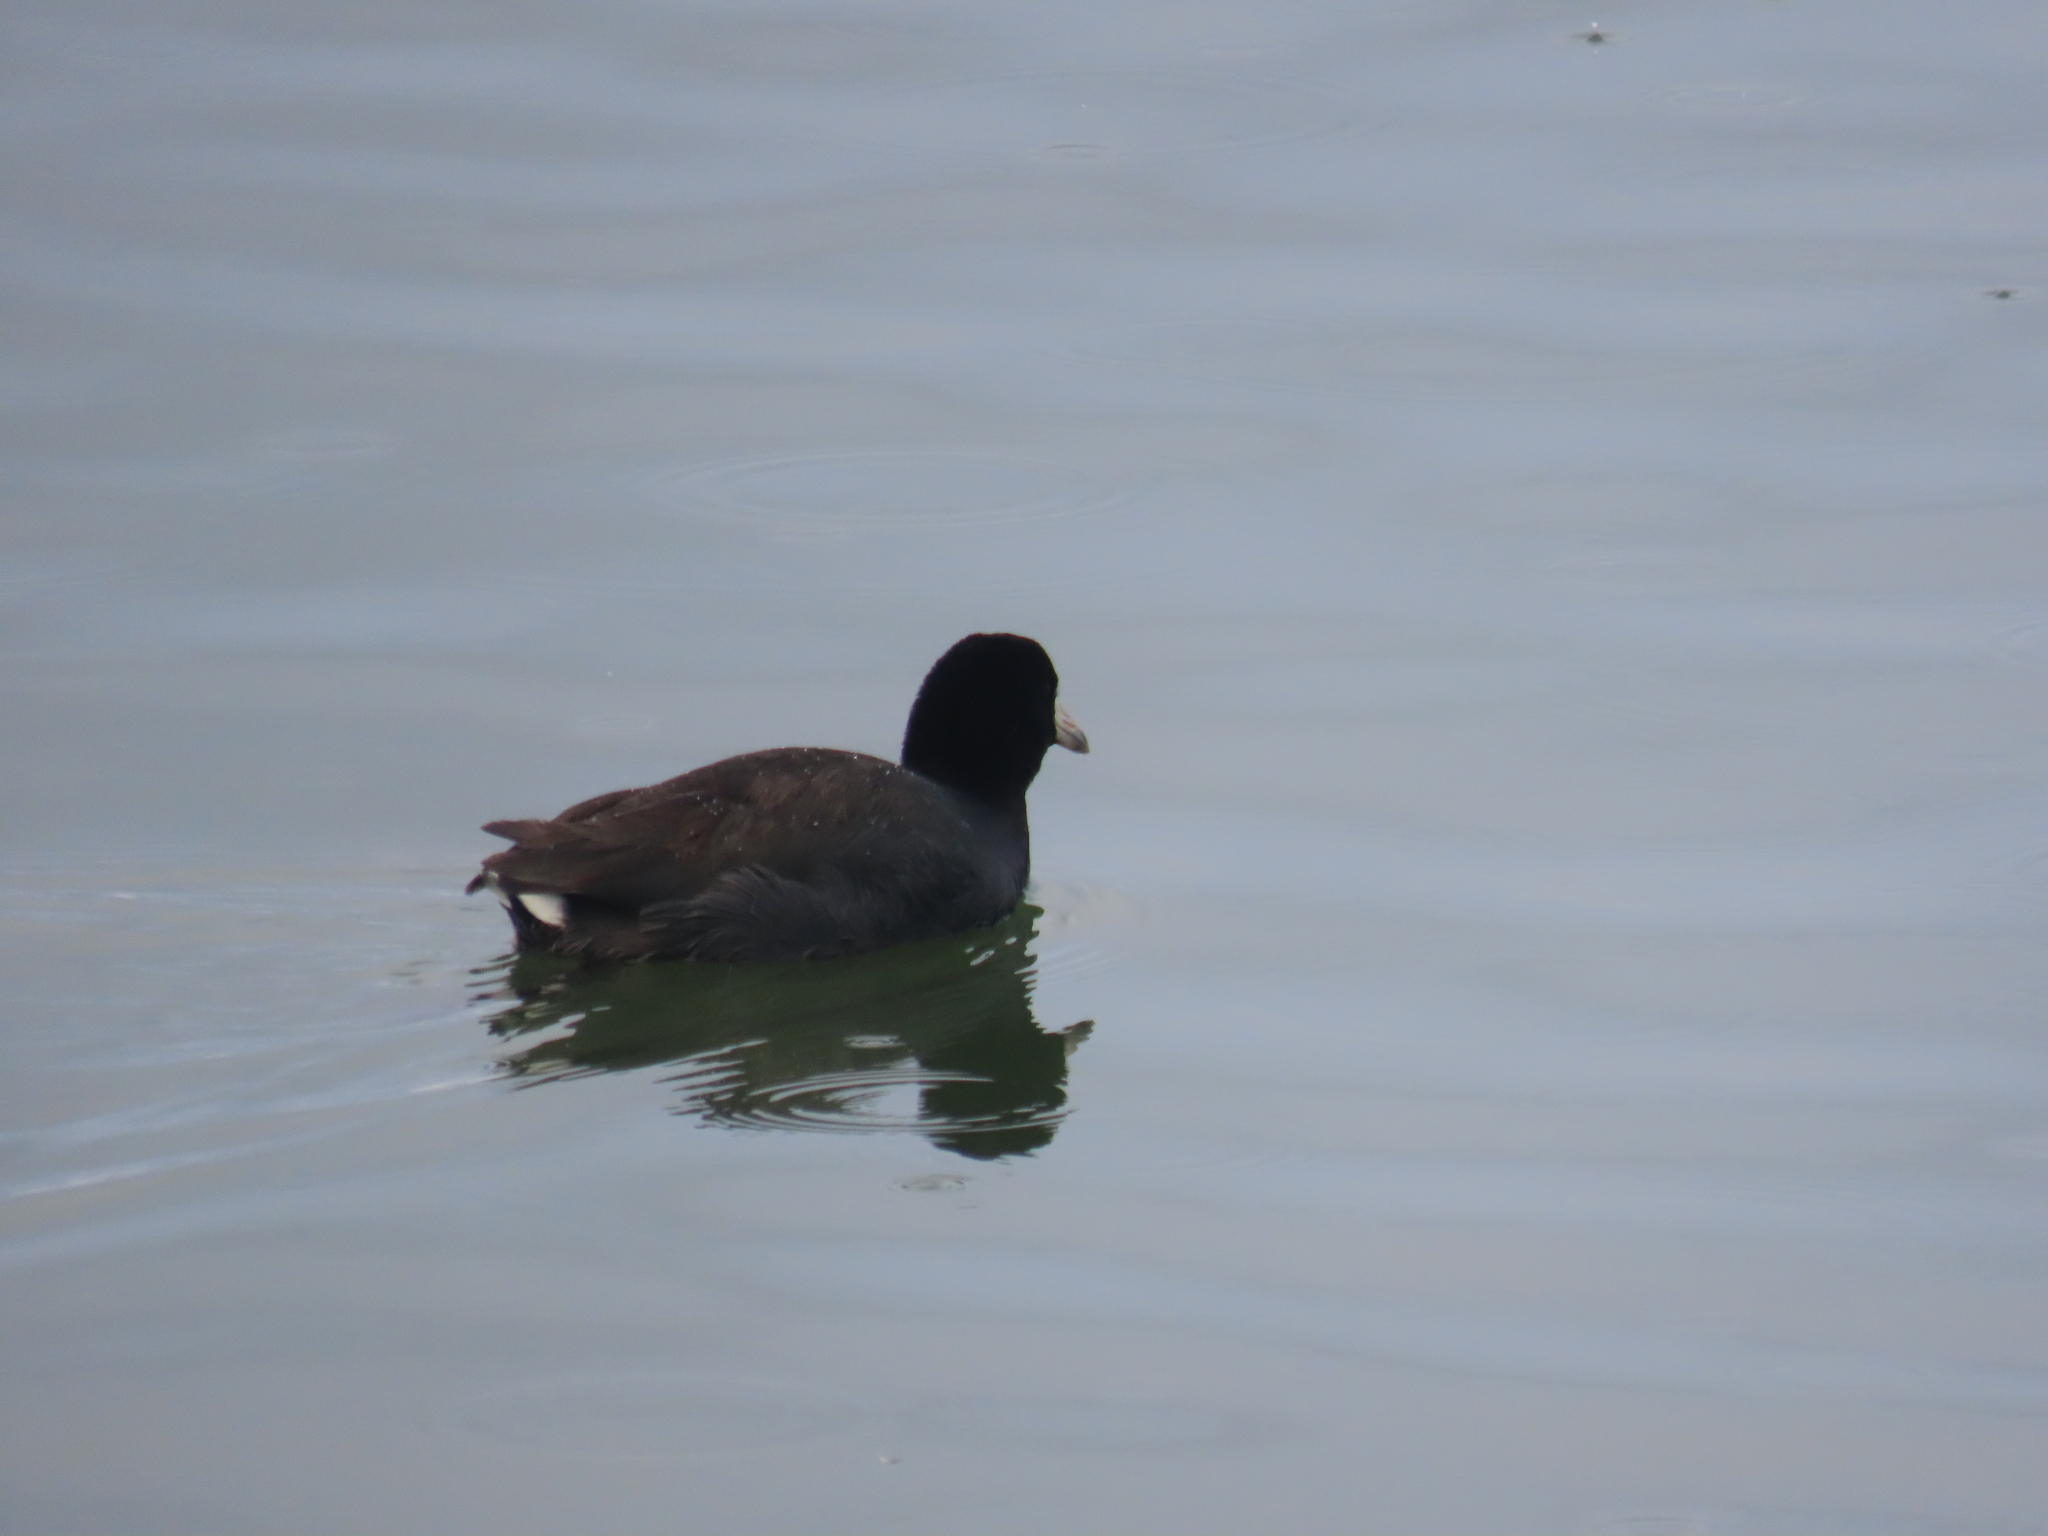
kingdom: Animalia
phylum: Chordata
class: Aves
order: Gruiformes
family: Rallidae
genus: Fulica
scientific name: Fulica americana
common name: American coot
